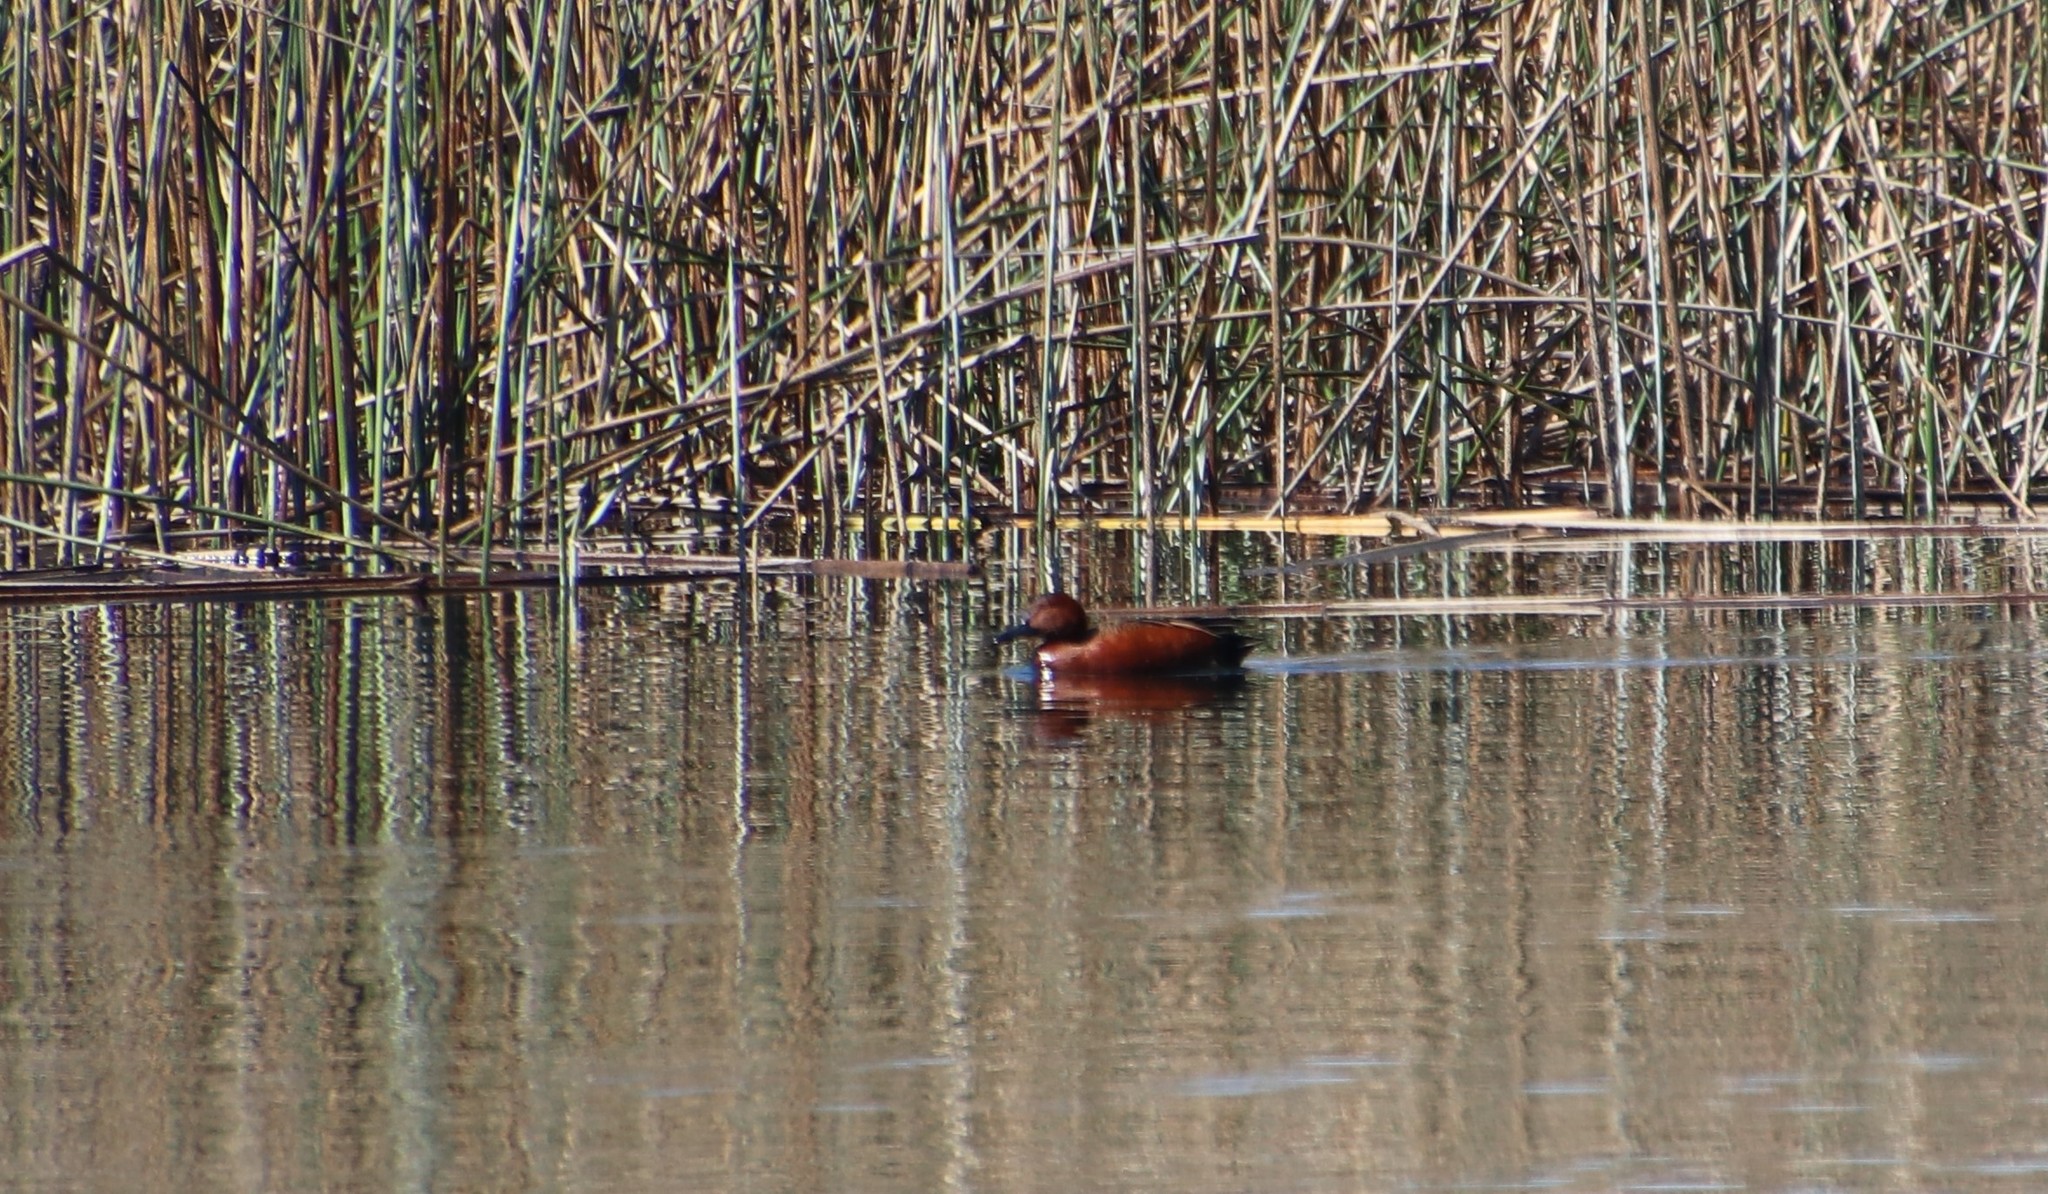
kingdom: Animalia
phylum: Chordata
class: Aves
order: Anseriformes
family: Anatidae
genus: Spatula
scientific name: Spatula cyanoptera
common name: Cinnamon teal
